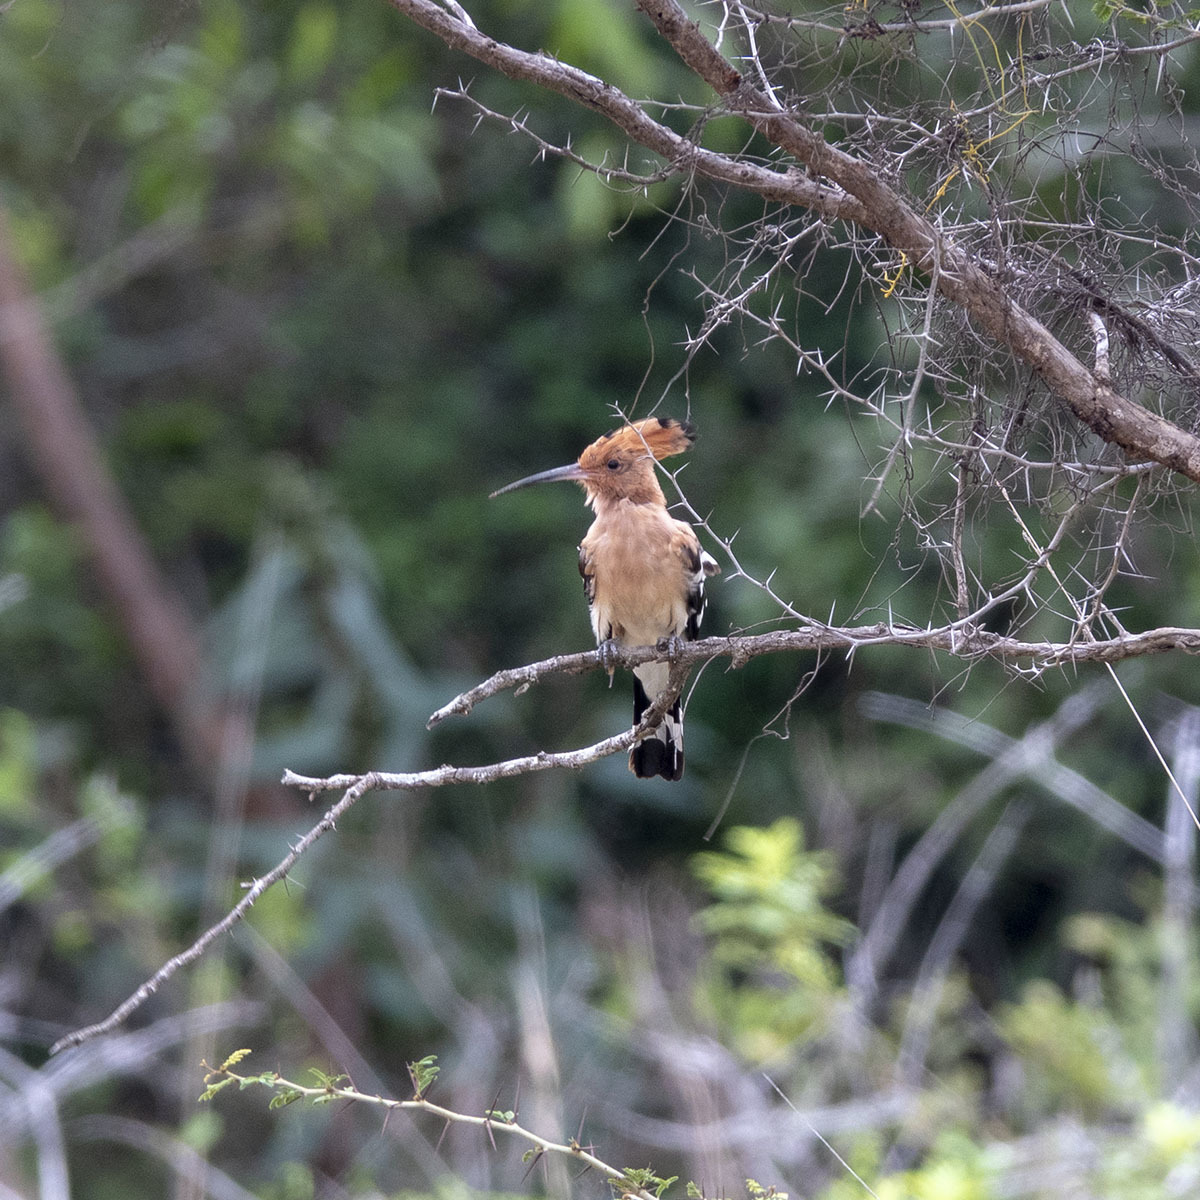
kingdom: Animalia
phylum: Chordata
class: Aves
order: Bucerotiformes
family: Upupidae
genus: Upupa
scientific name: Upupa epops
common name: Eurasian hoopoe
